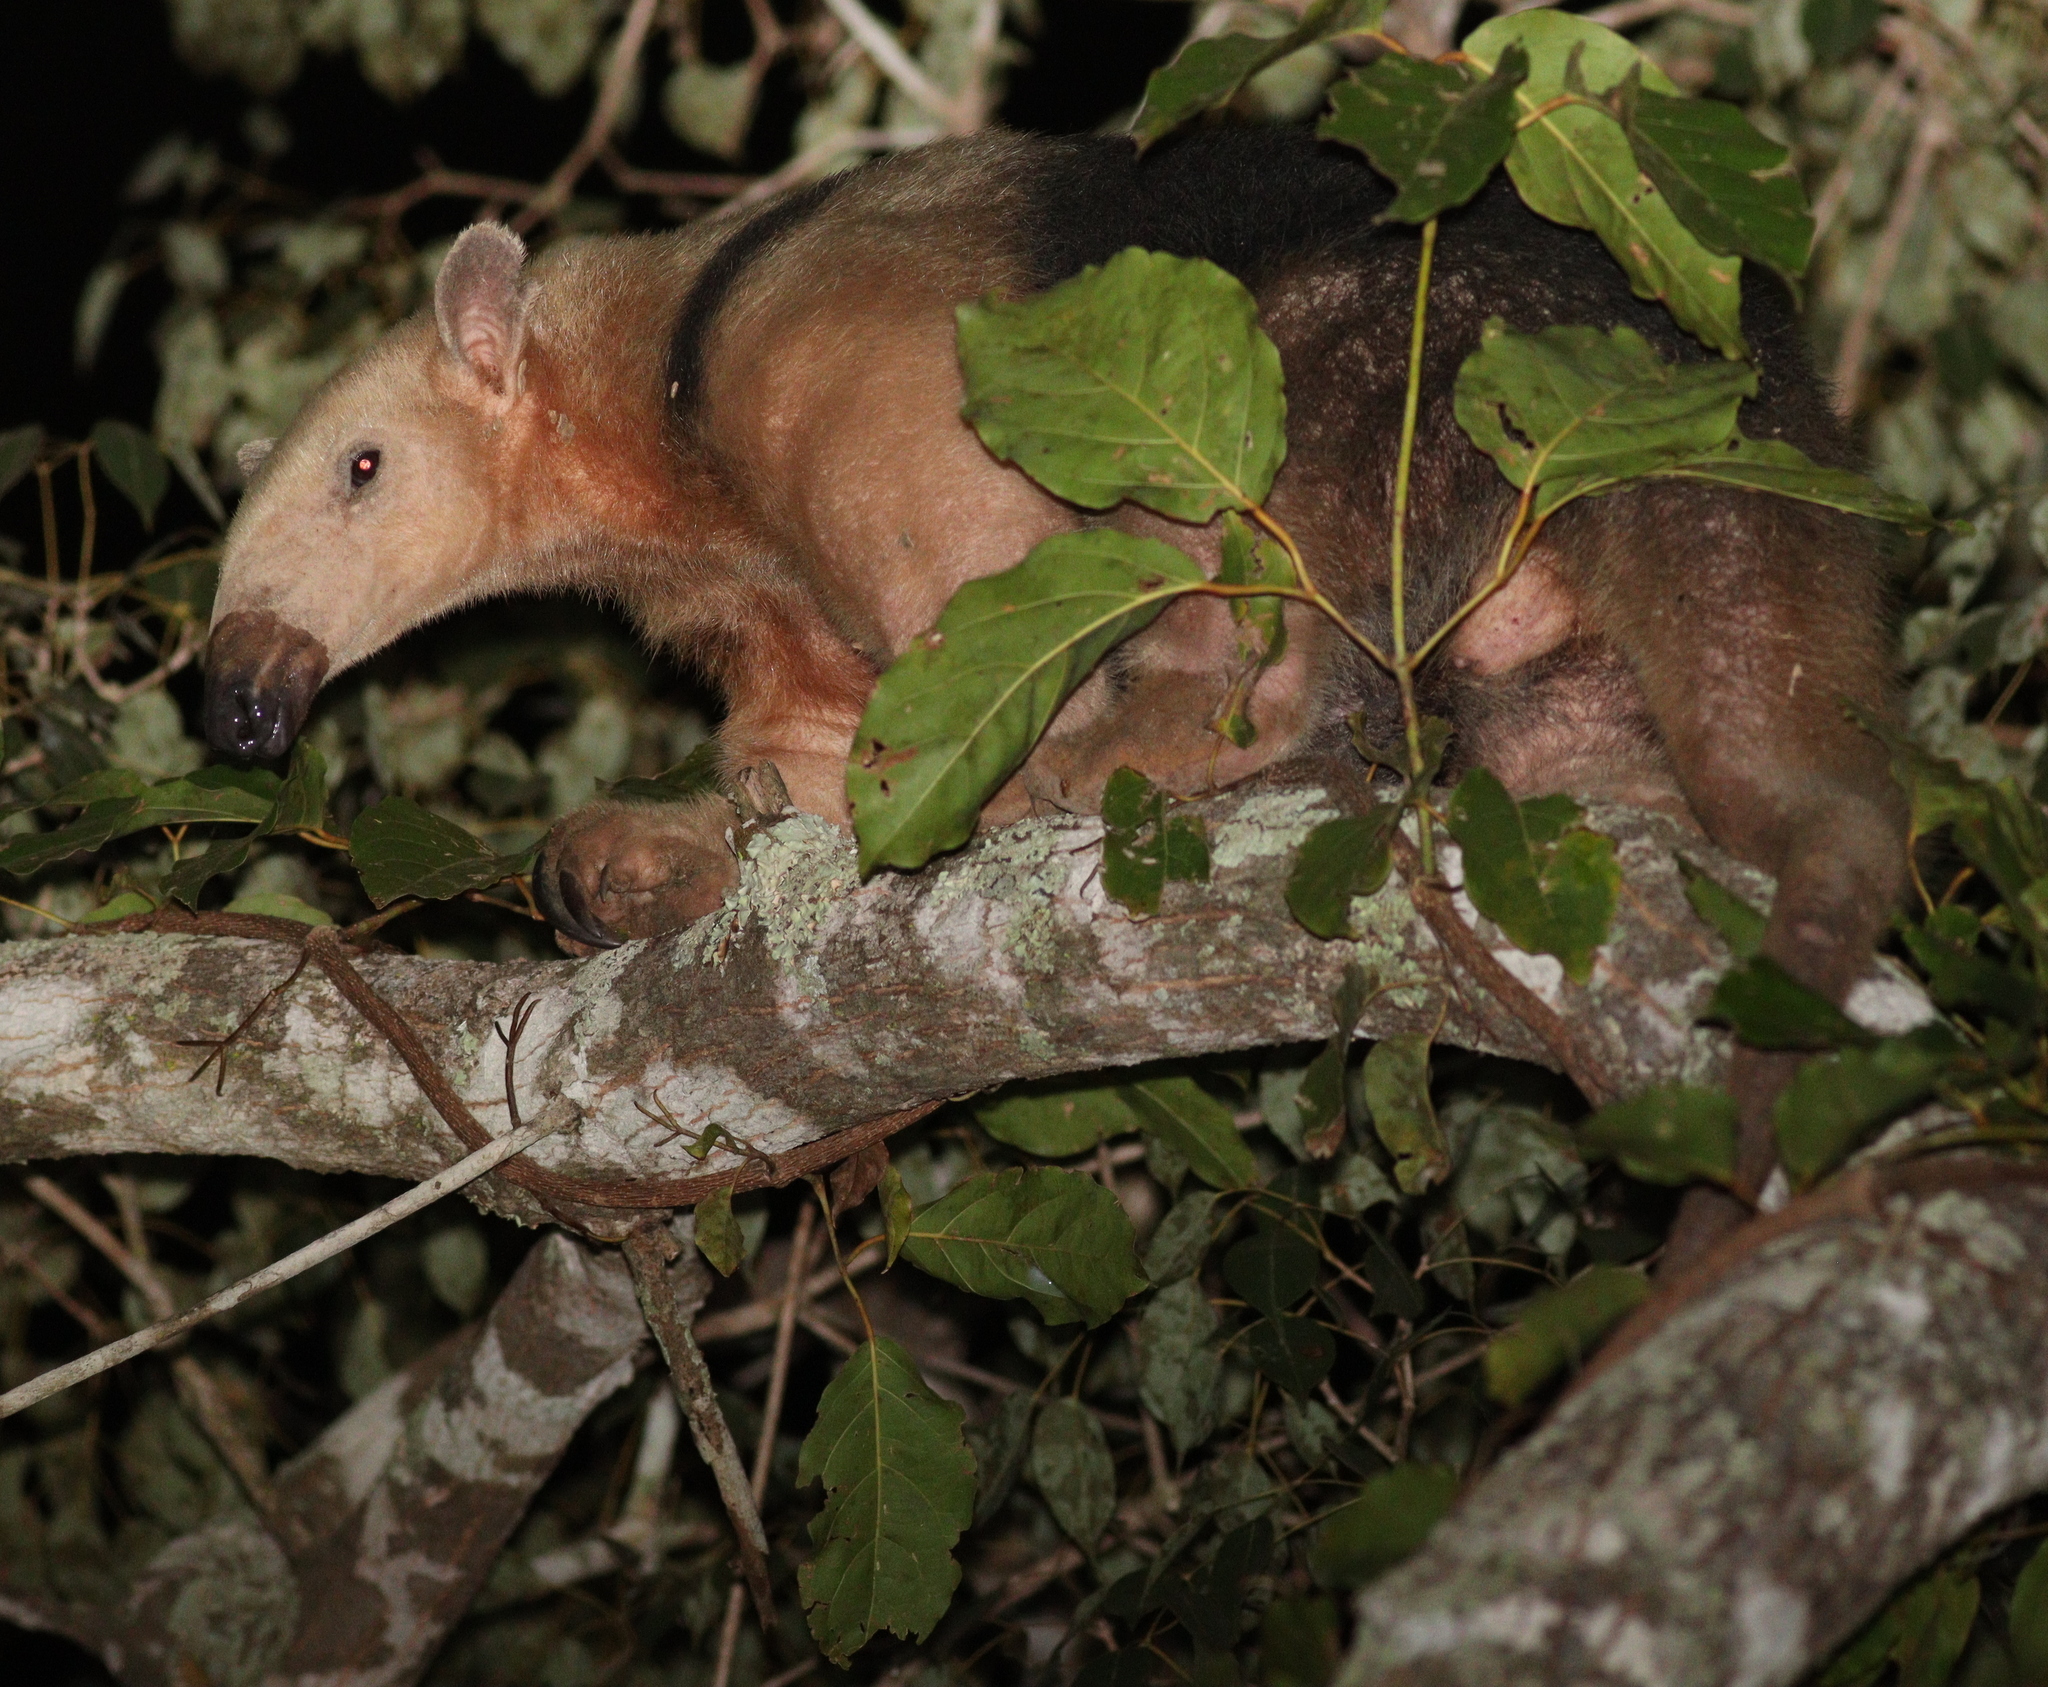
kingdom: Animalia
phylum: Chordata
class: Mammalia
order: Pilosa
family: Myrmecophagidae
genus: Tamandua
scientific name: Tamandua tetradactyla
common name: Southern tamandua
